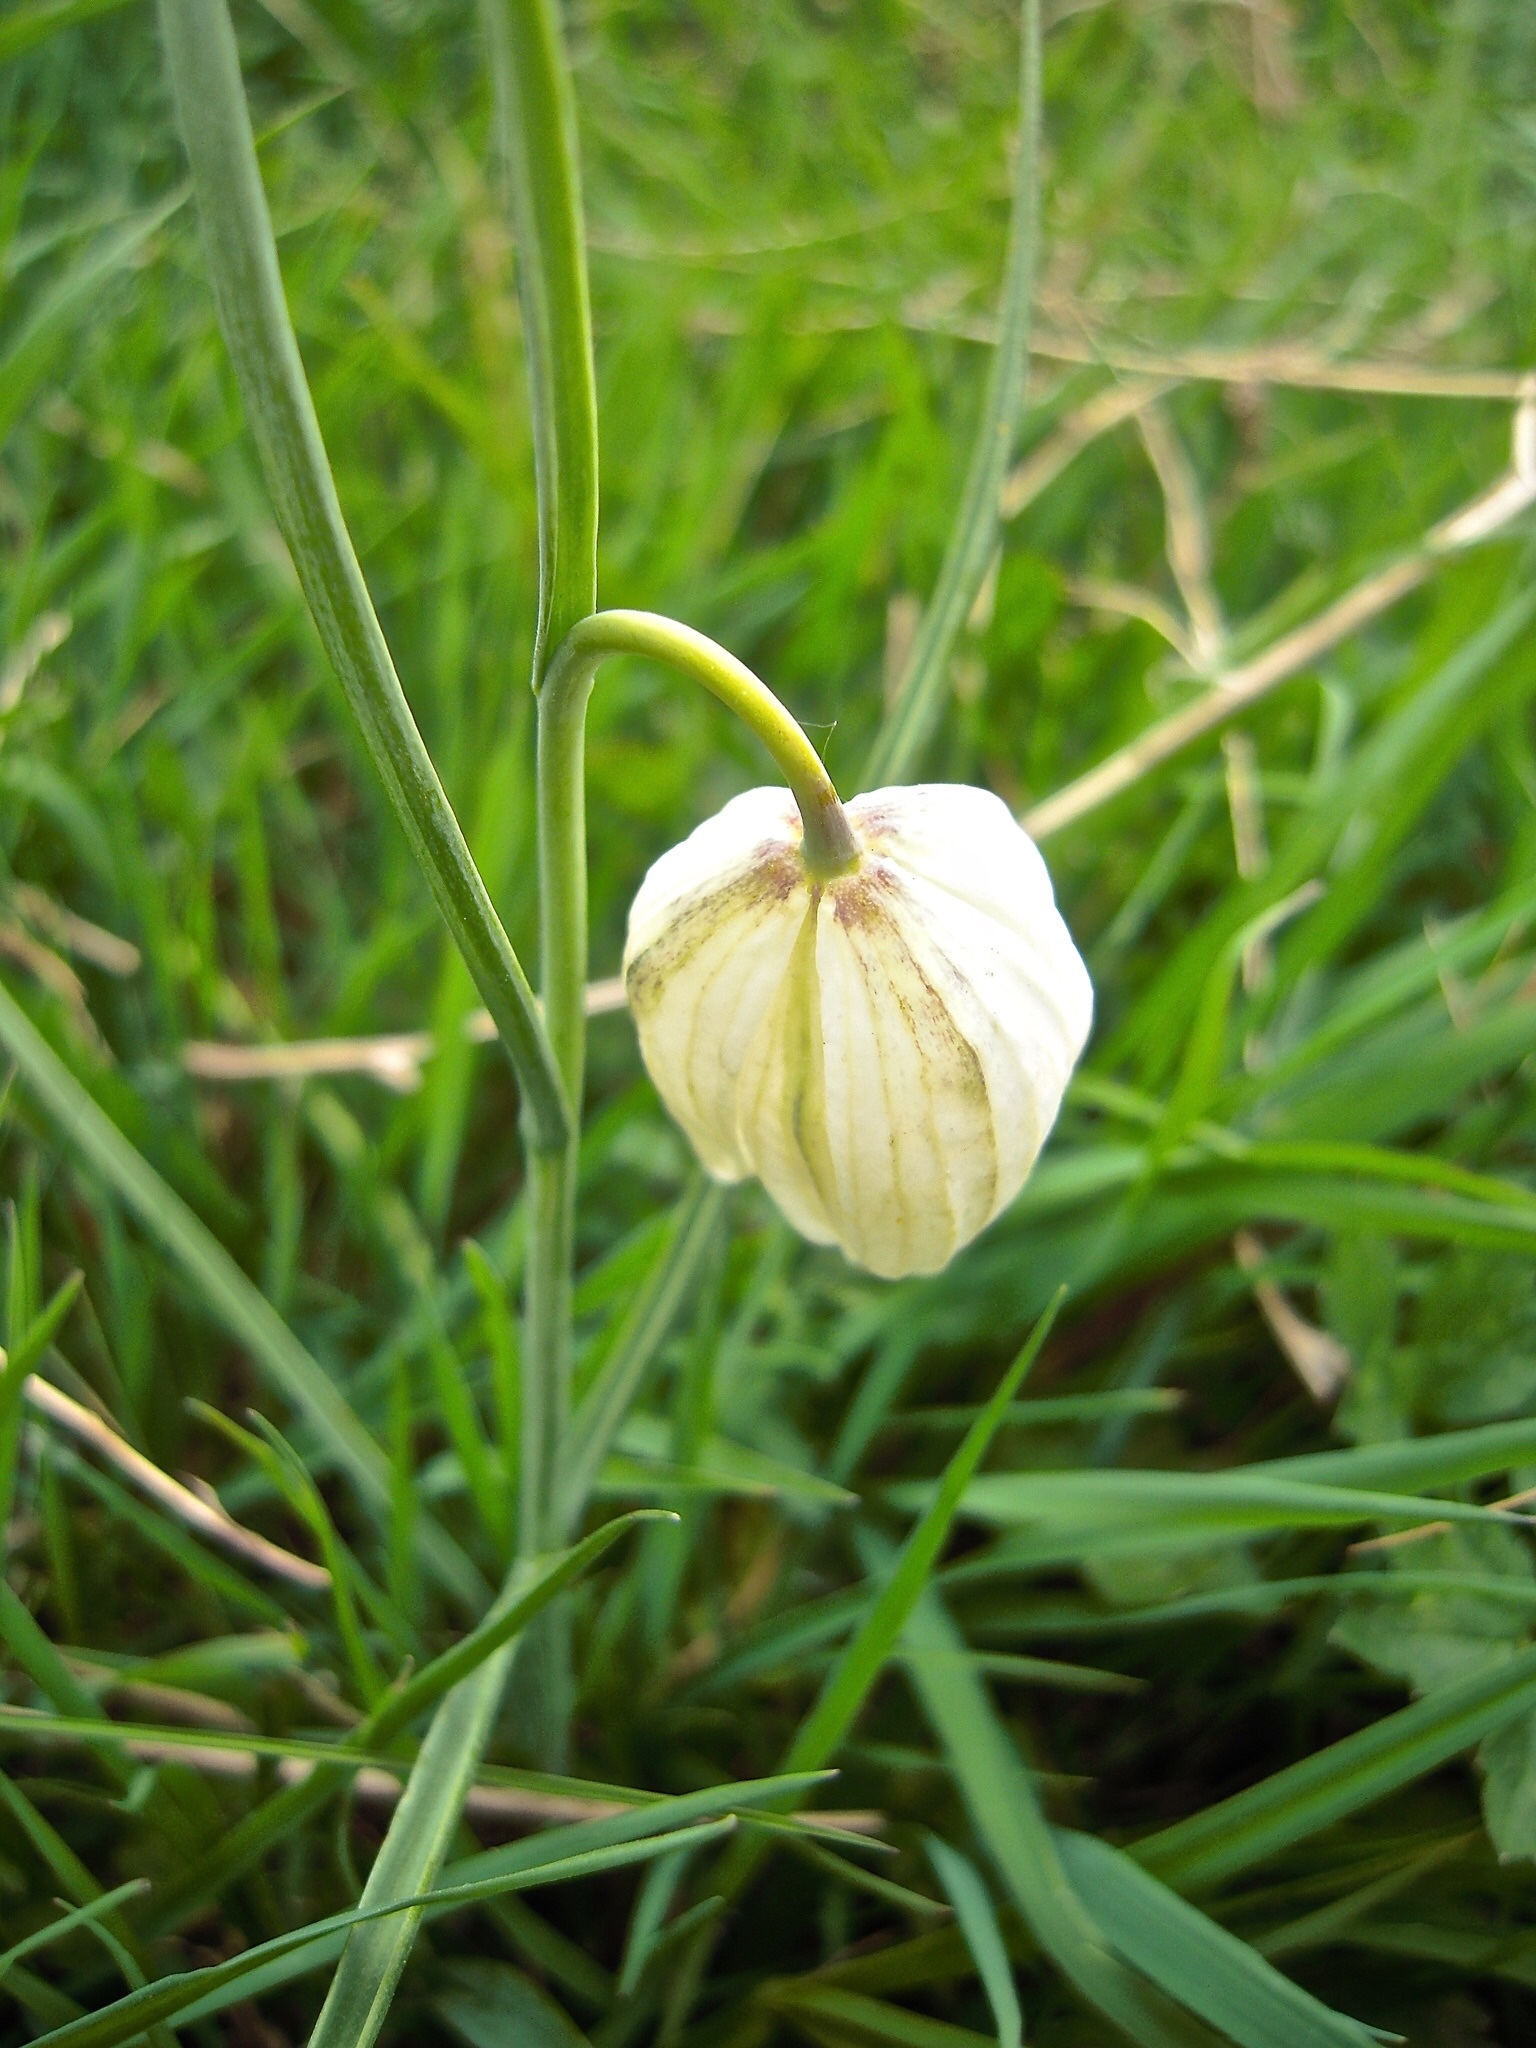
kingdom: Plantae
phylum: Tracheophyta
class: Liliopsida
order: Liliales
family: Liliaceae
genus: Fritillaria
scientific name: Fritillaria meleagris
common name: Fritillary
